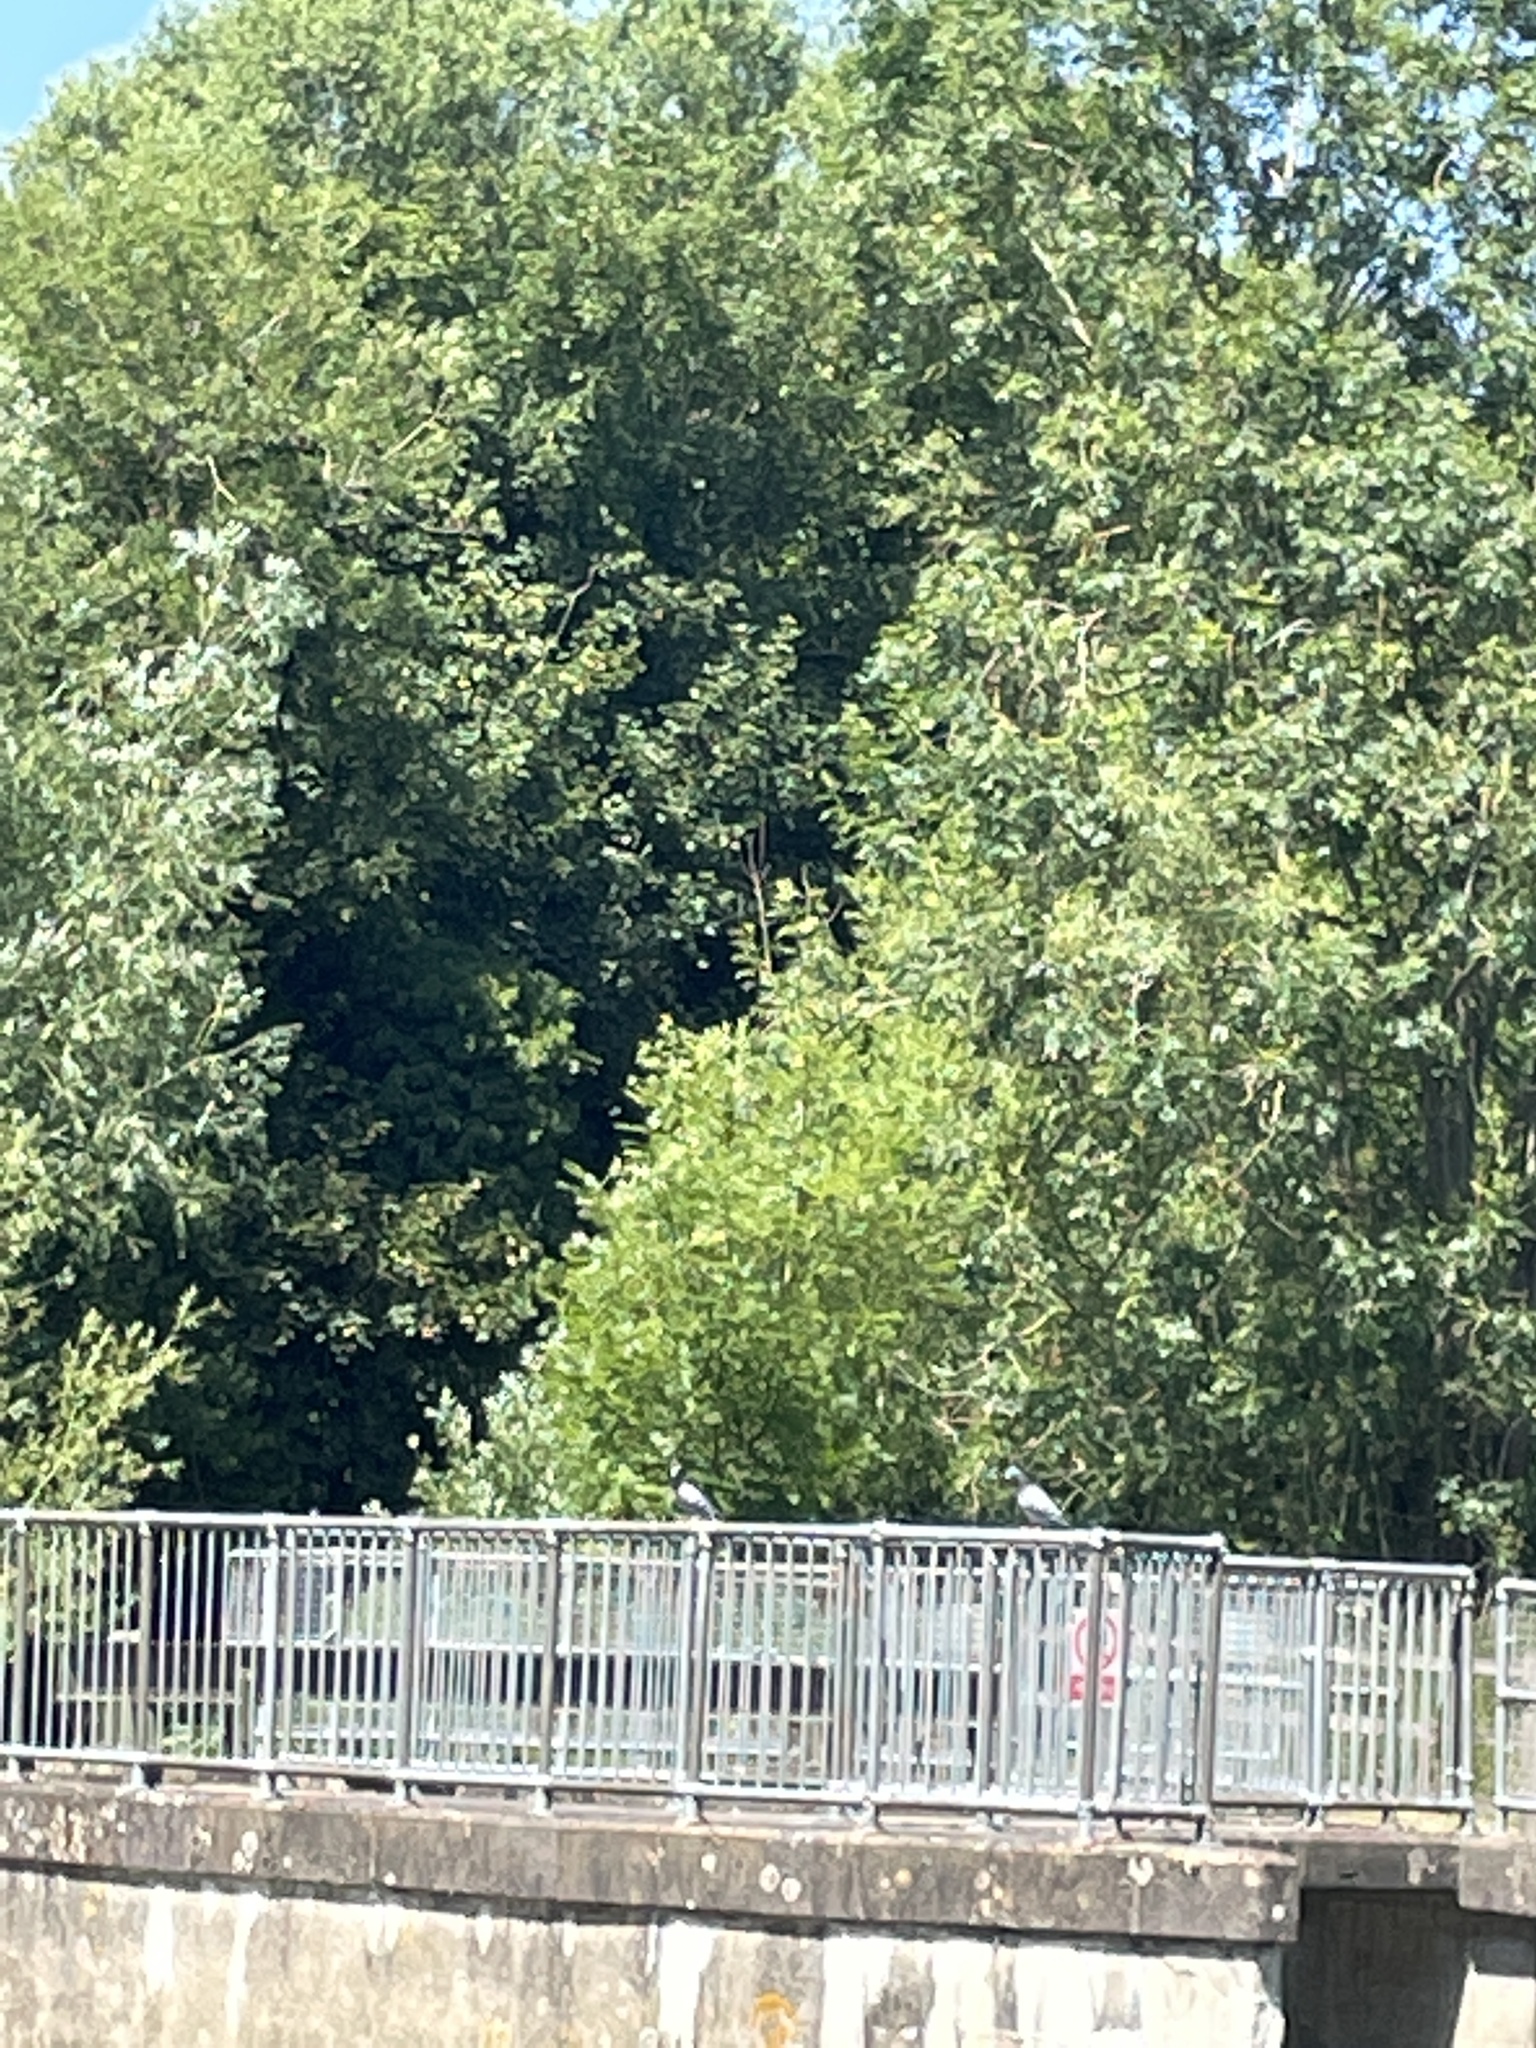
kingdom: Animalia
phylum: Chordata
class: Aves
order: Columbiformes
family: Columbidae
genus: Columba
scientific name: Columba livia
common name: Rock pigeon
